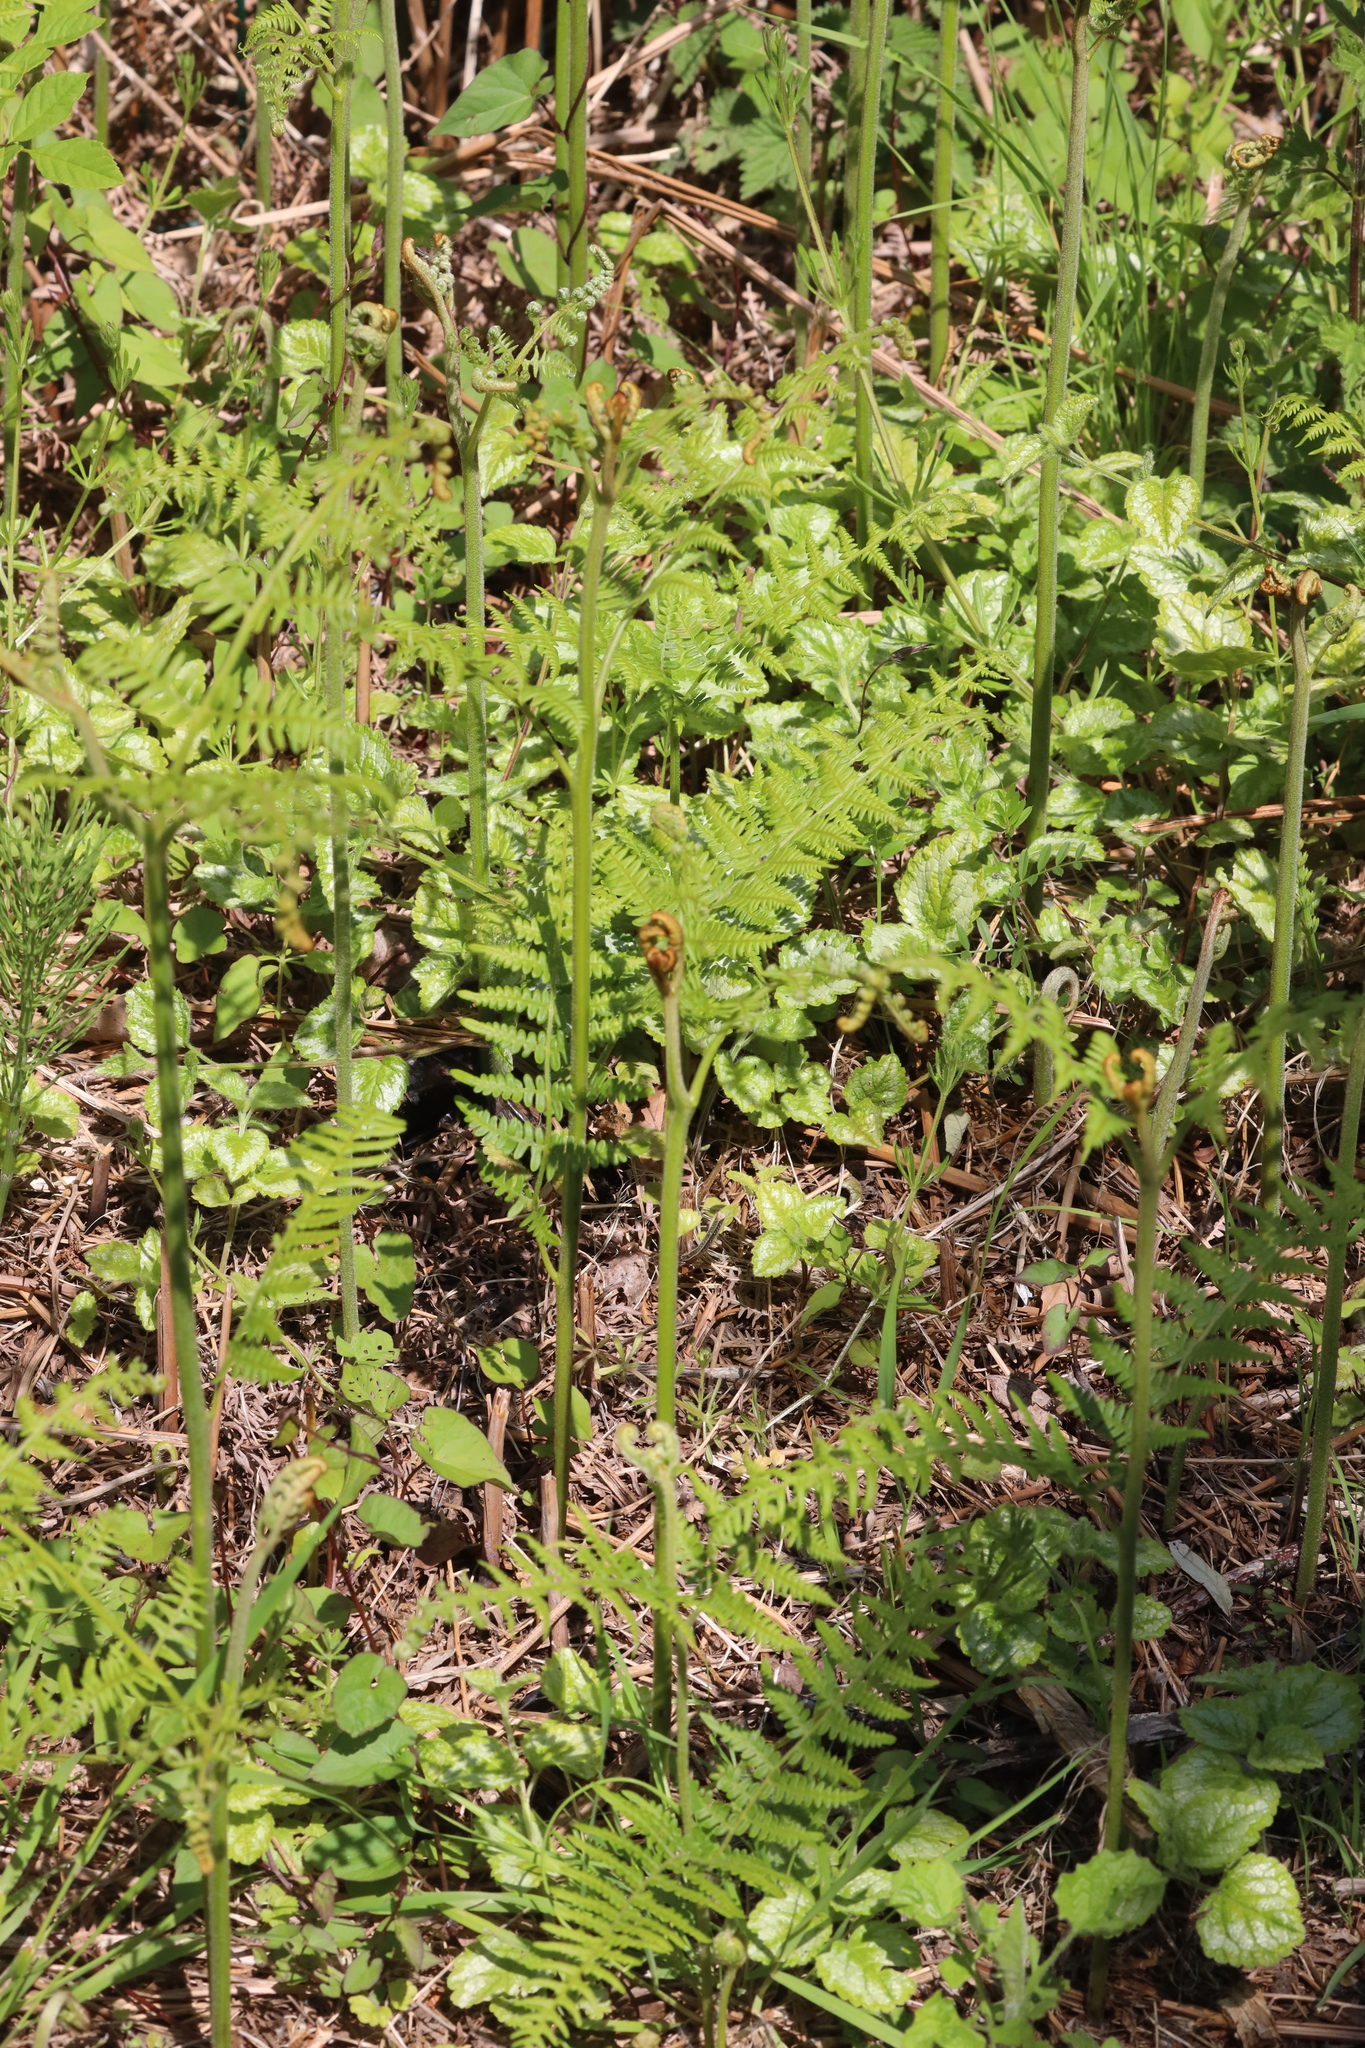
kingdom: Plantae
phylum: Tracheophyta
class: Polypodiopsida
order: Polypodiales
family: Dennstaedtiaceae
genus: Pteridium
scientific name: Pteridium aquilinum
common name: Bracken
